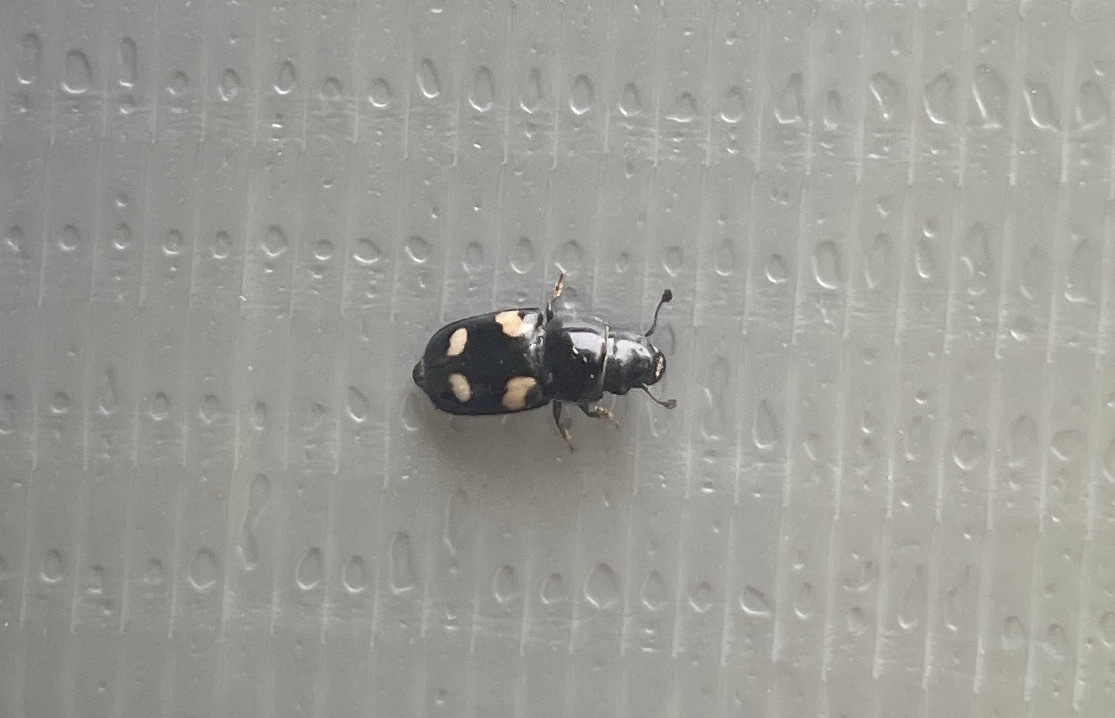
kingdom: Animalia
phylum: Arthropoda
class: Insecta
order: Coleoptera
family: Nitidulidae
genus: Glischrochilus
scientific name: Glischrochilus quadrisignatus
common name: Picnic beetle
